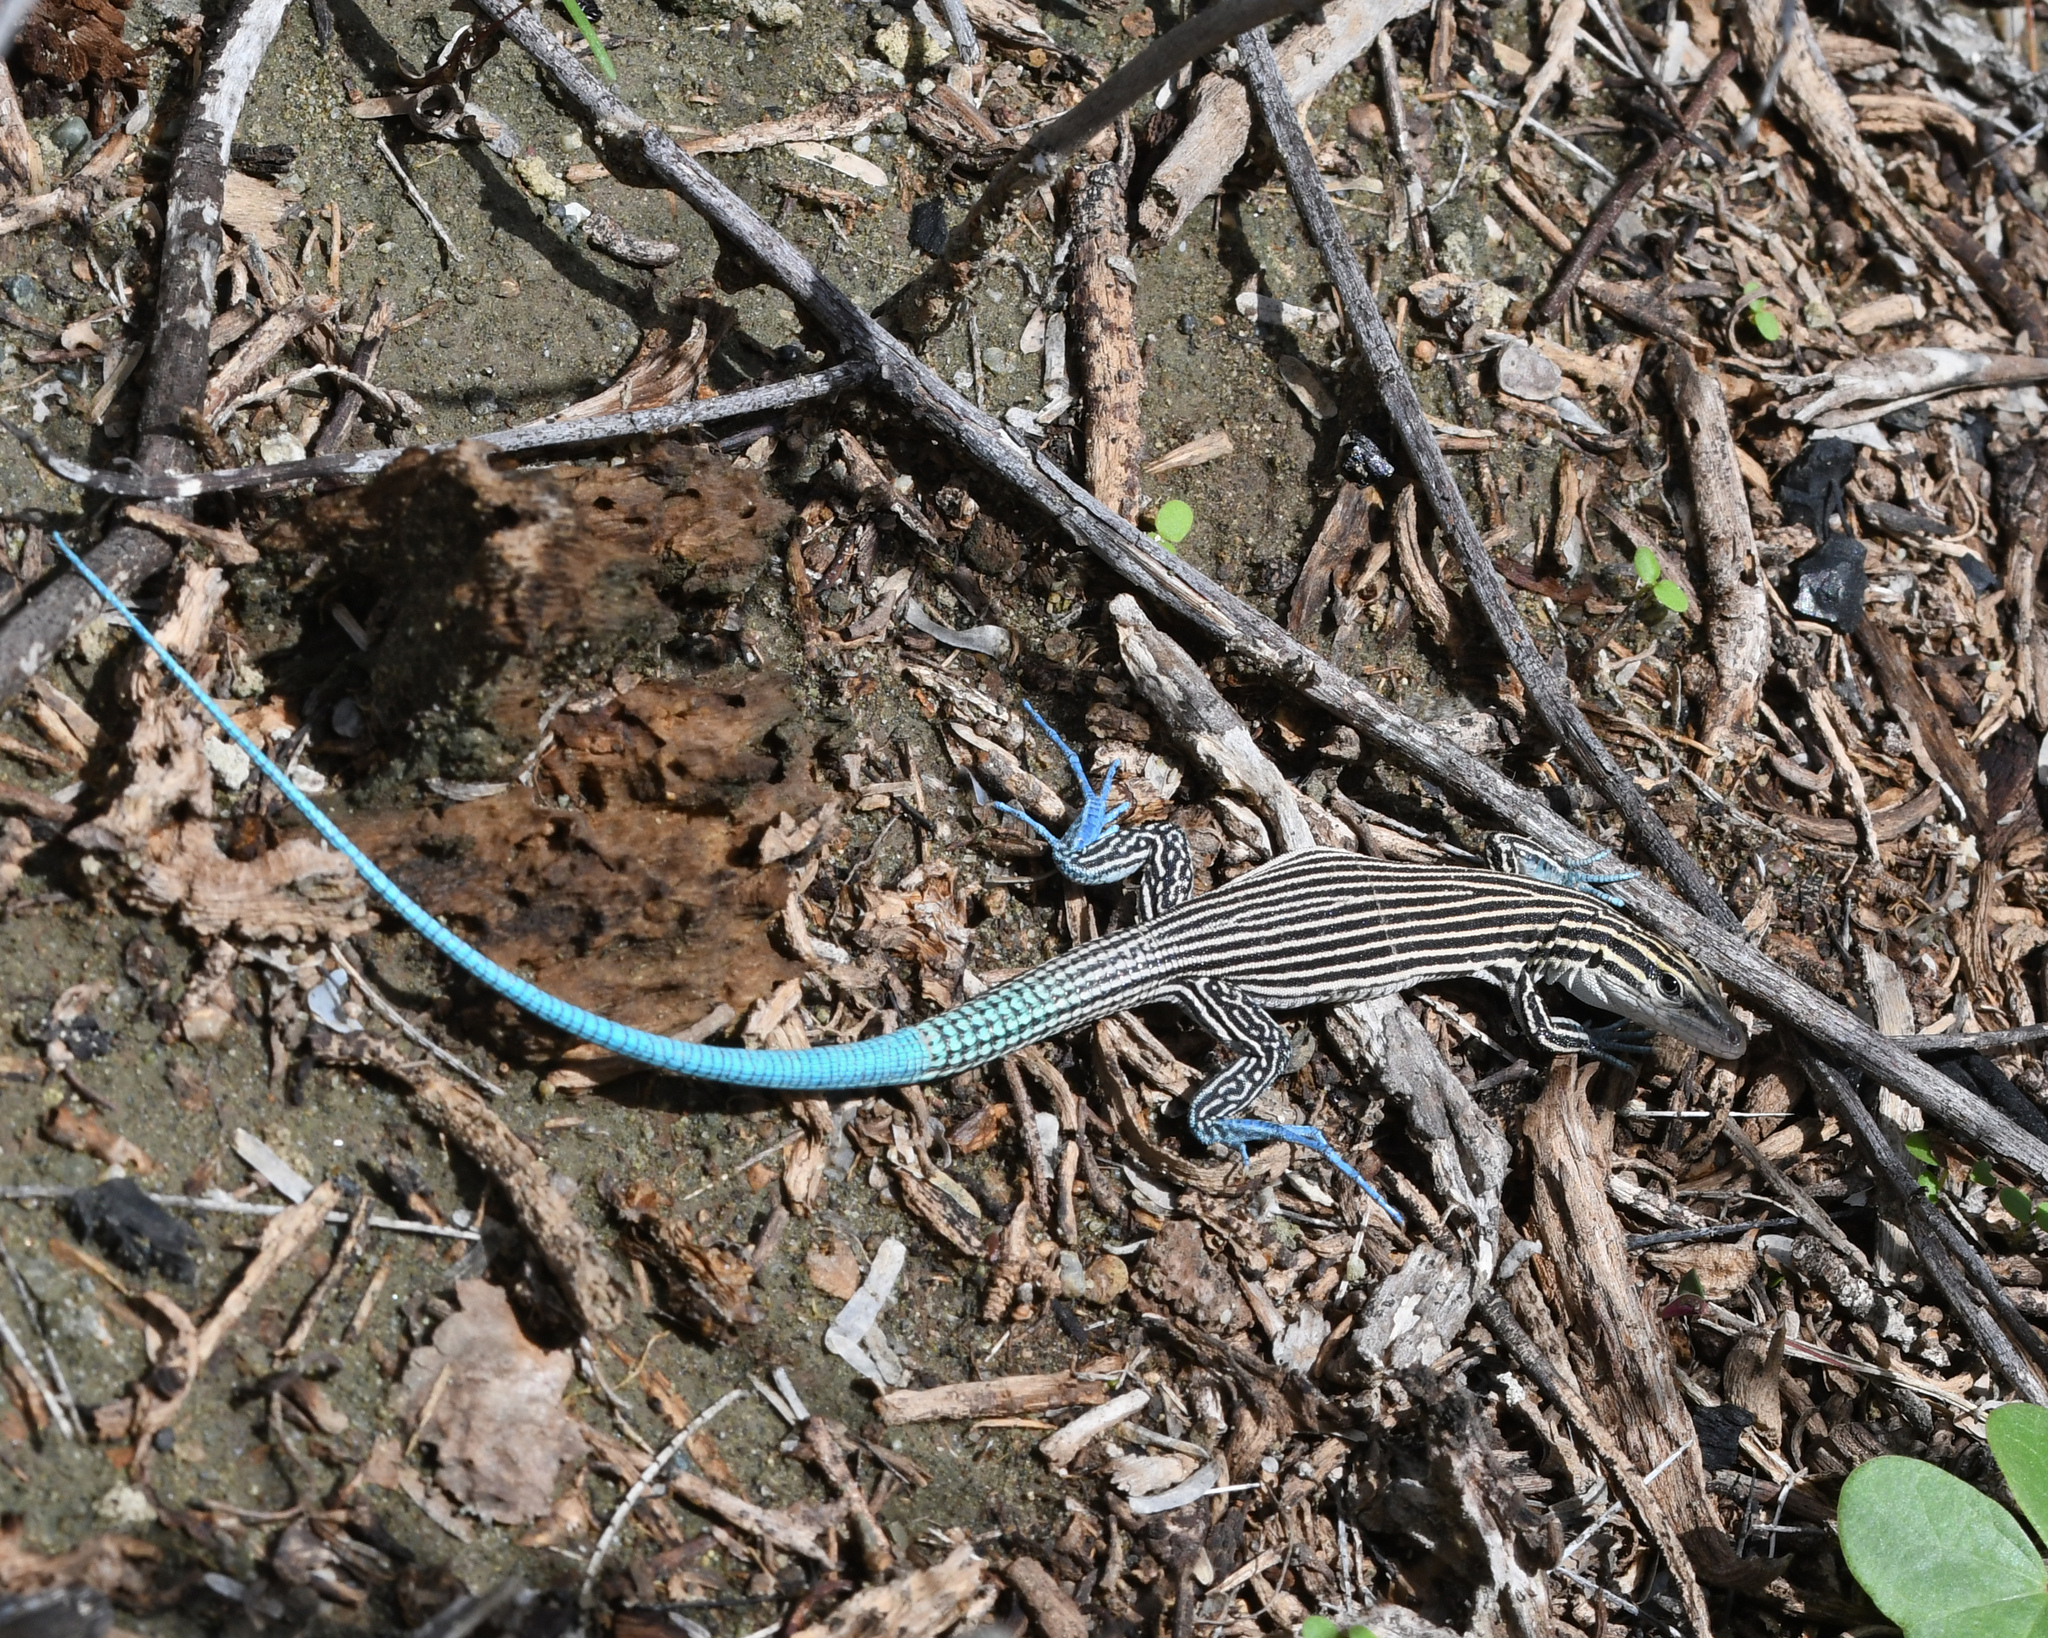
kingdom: Animalia
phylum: Chordata
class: Squamata
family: Teiidae
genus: Pholidoscelis
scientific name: Pholidoscelis lineolatus
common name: Pigmy blue-tailed ameiva
